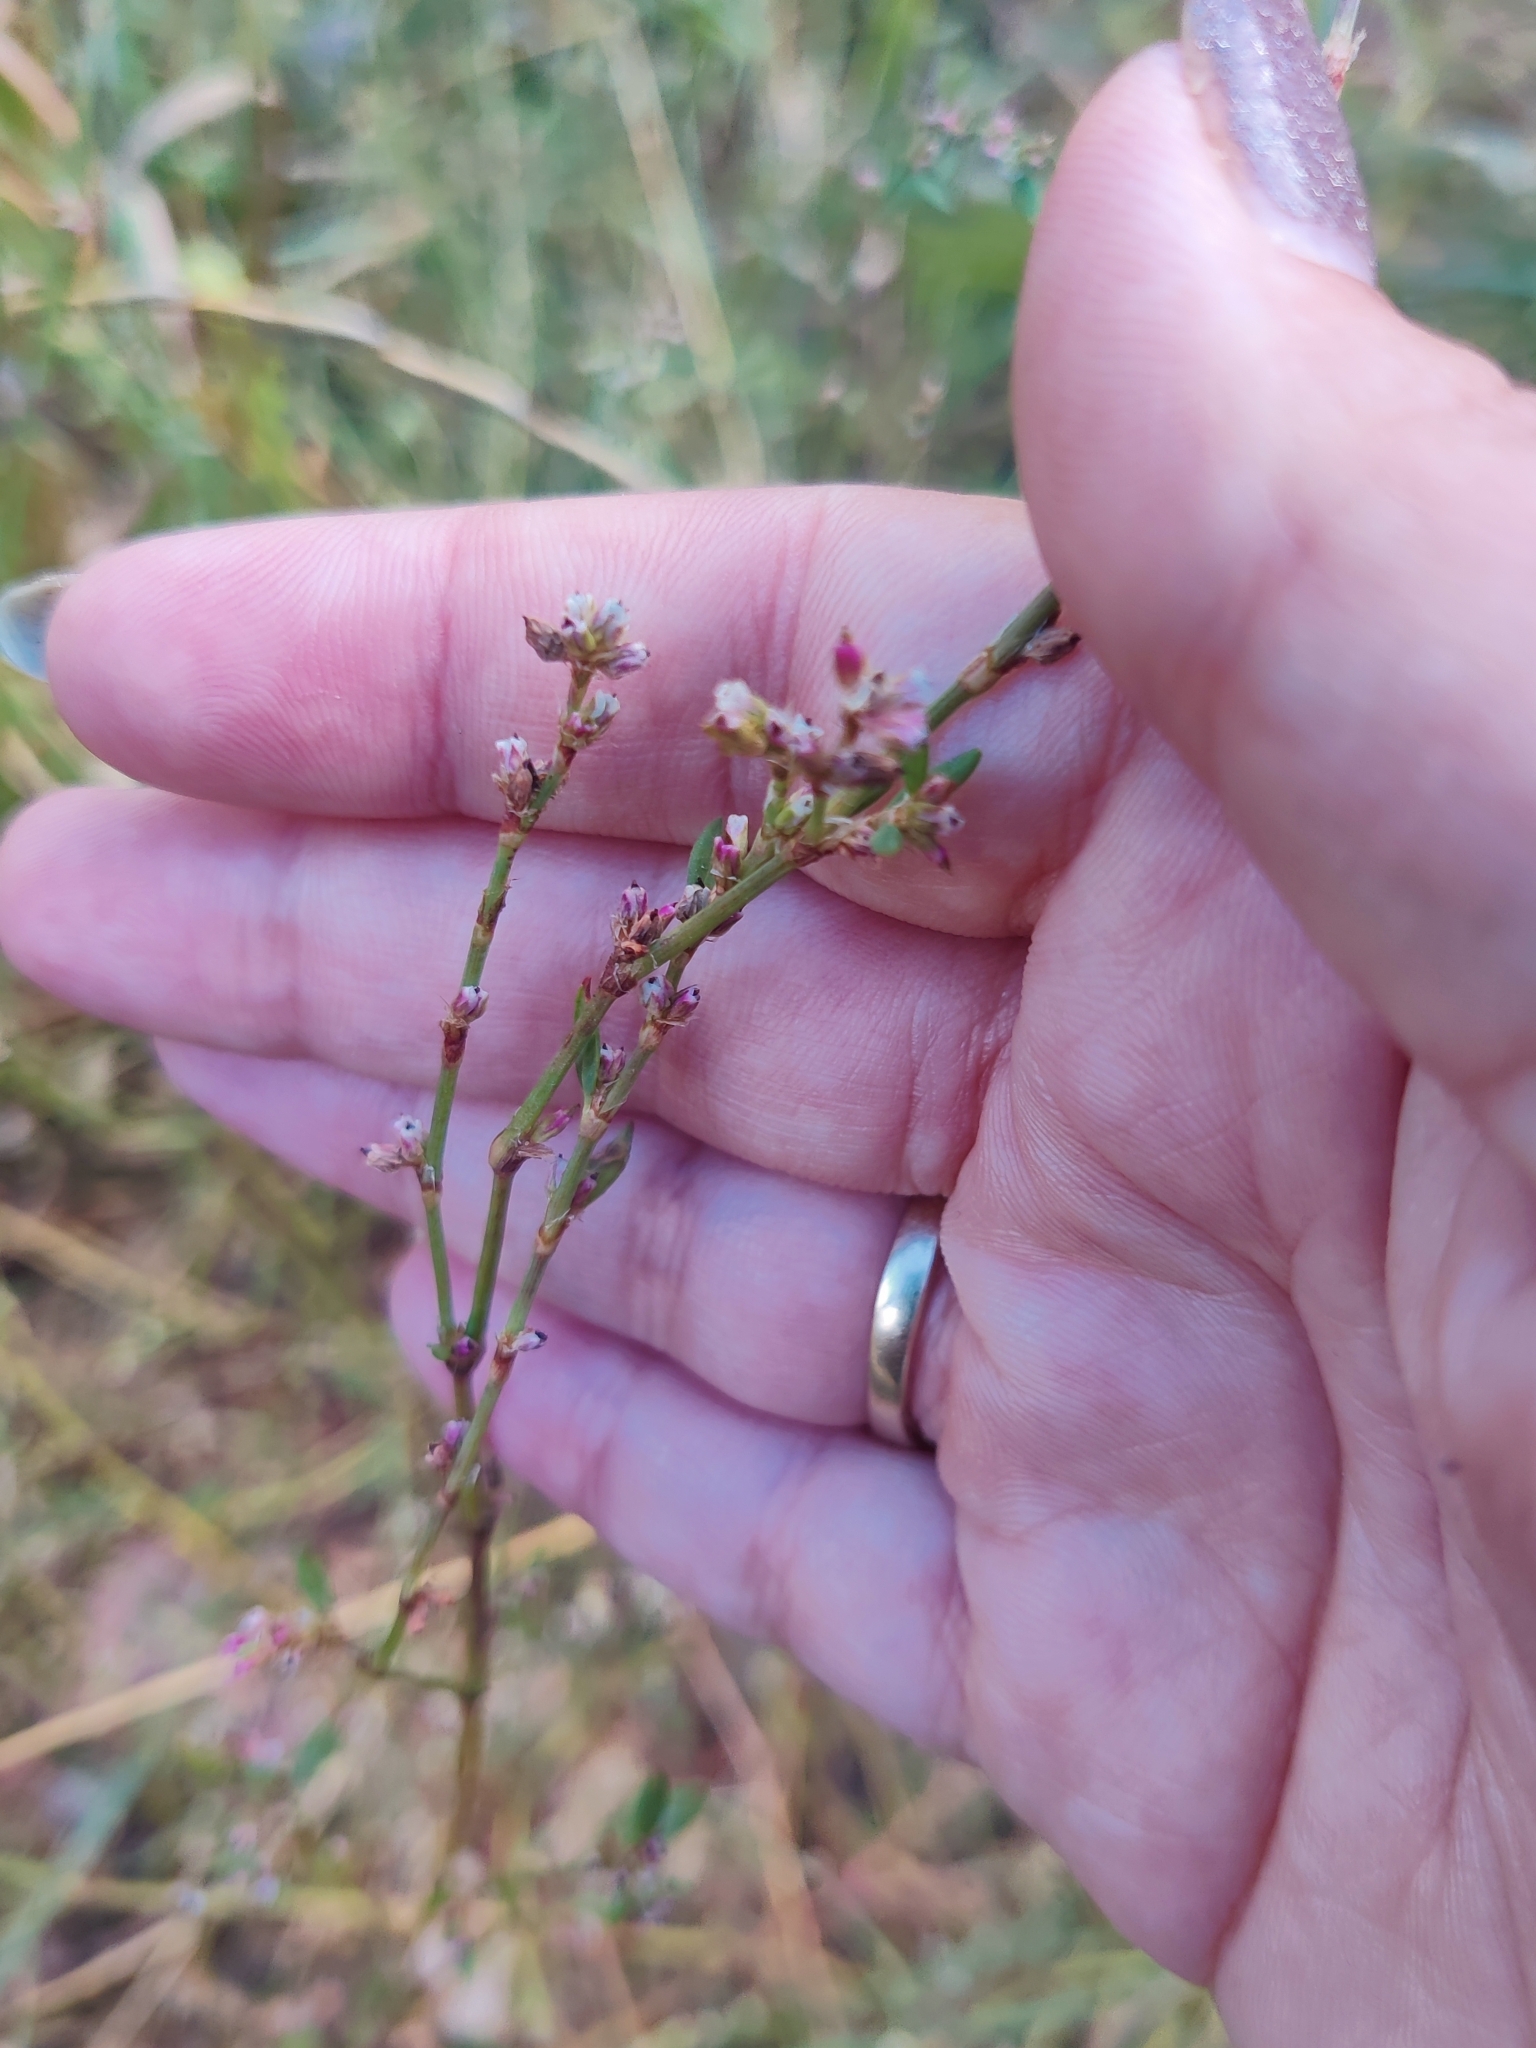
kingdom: Plantae
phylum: Tracheophyta
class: Magnoliopsida
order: Caryophyllales
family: Polygonaceae
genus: Polygonum
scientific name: Polygonum
